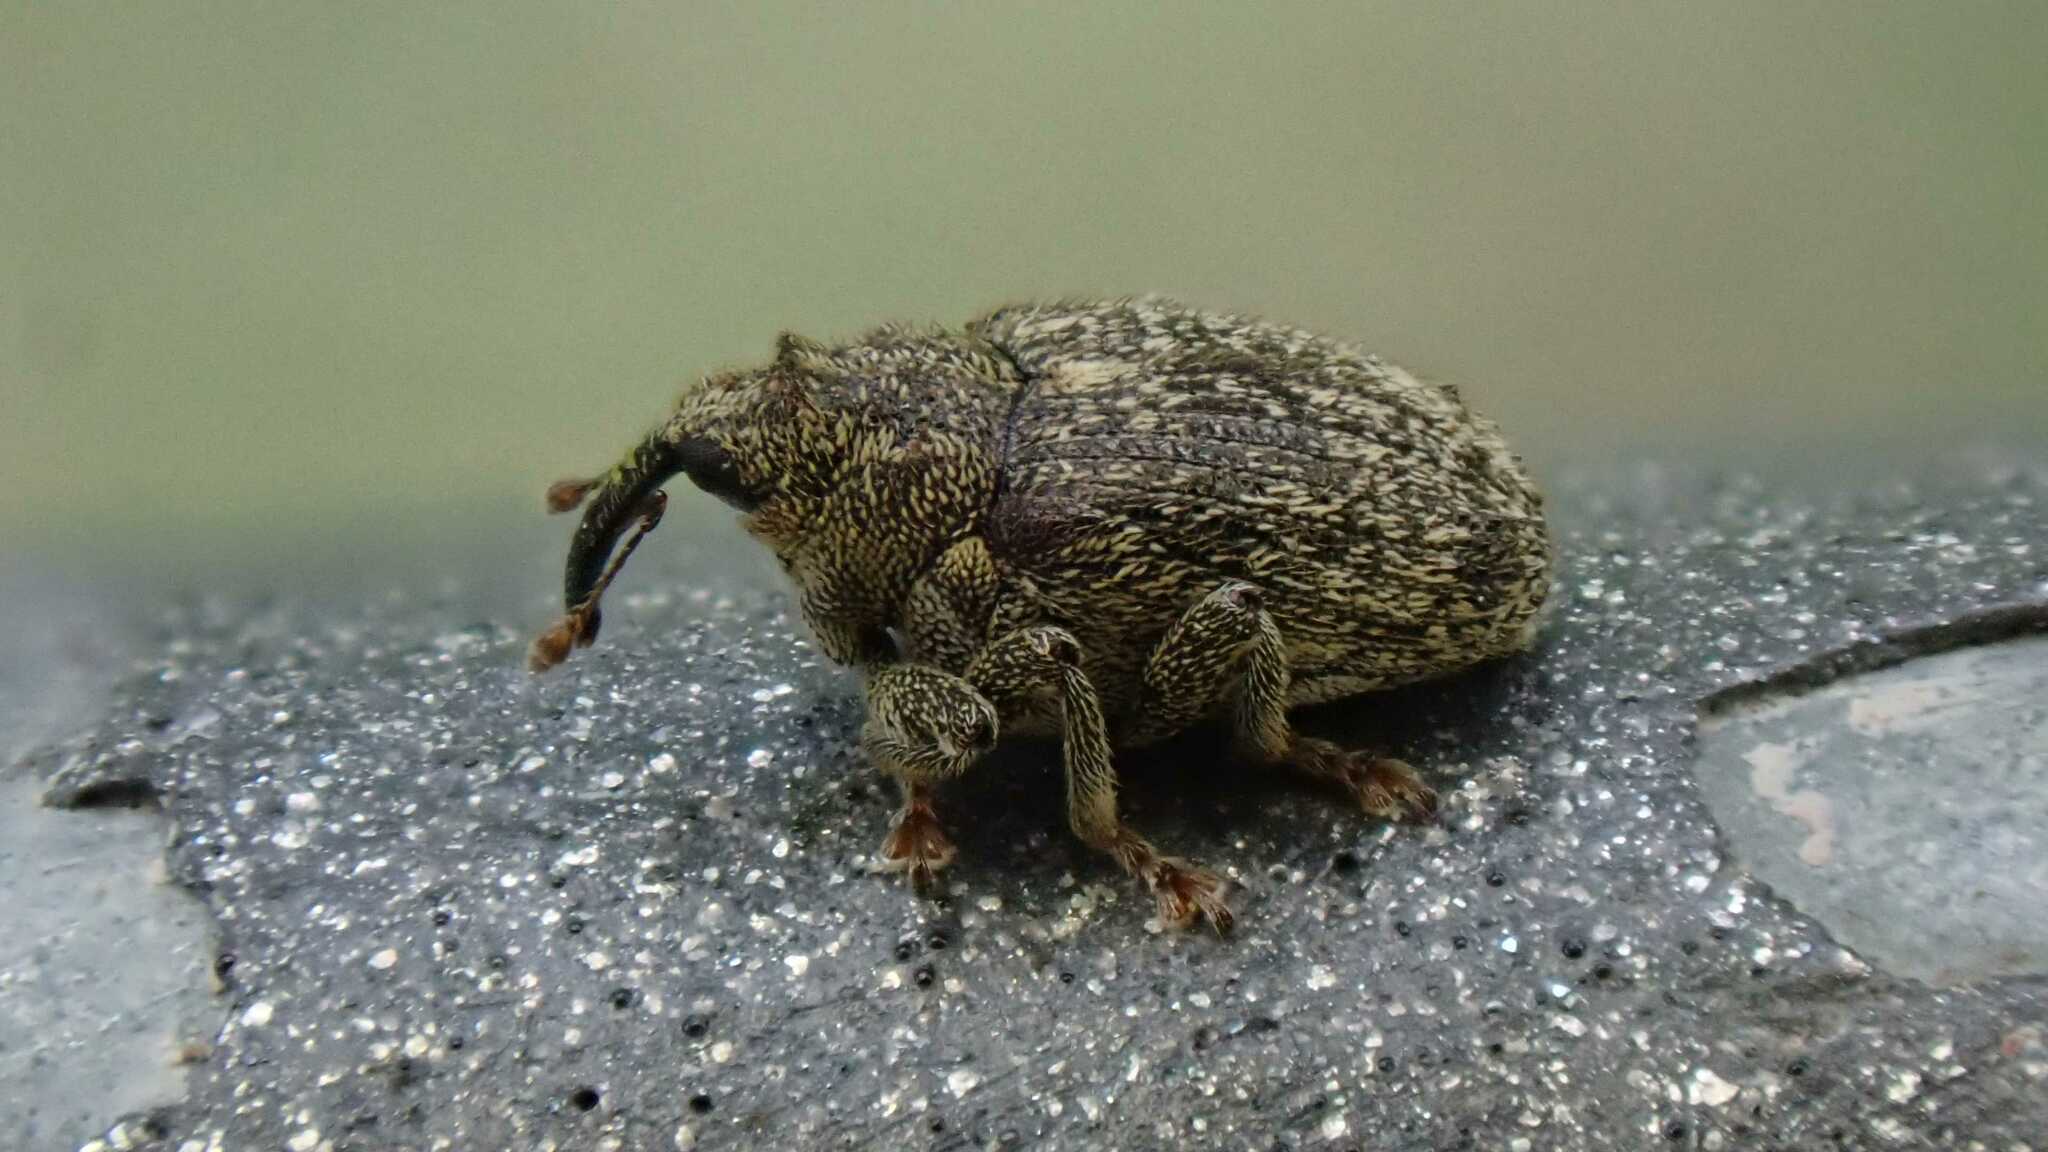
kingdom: Animalia
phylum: Arthropoda
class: Insecta
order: Coleoptera
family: Curculionidae
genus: Ceutorhynchus
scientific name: Ceutorhynchus pallidactylus
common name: Cabbage stem weavil
